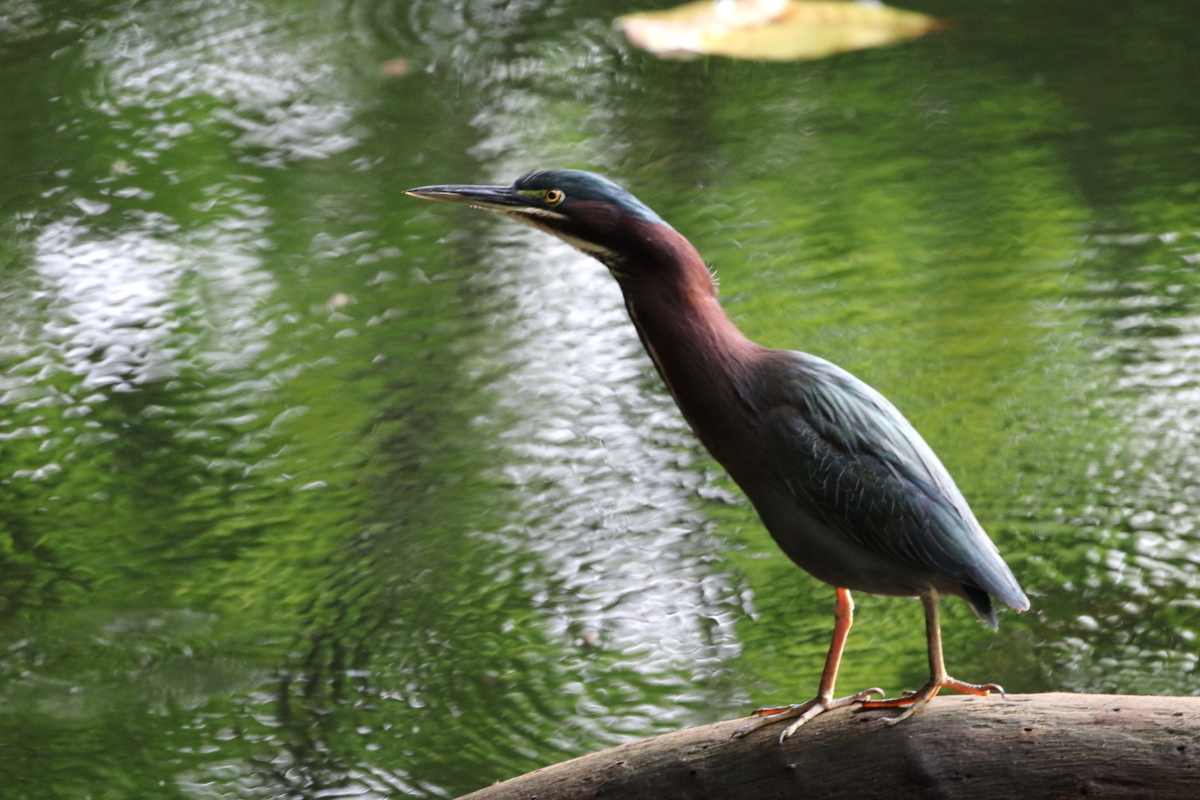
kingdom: Animalia
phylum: Chordata
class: Aves
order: Pelecaniformes
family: Ardeidae
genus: Butorides
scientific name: Butorides virescens
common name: Green heron
